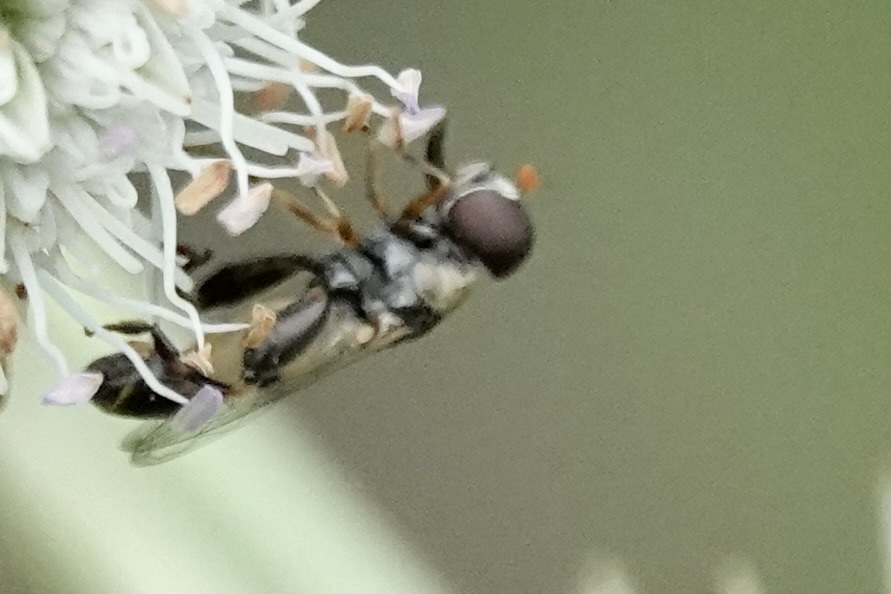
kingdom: Animalia
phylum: Arthropoda
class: Insecta
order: Diptera
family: Syrphidae
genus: Syritta
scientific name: Syritta pipiens
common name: Hover fly
